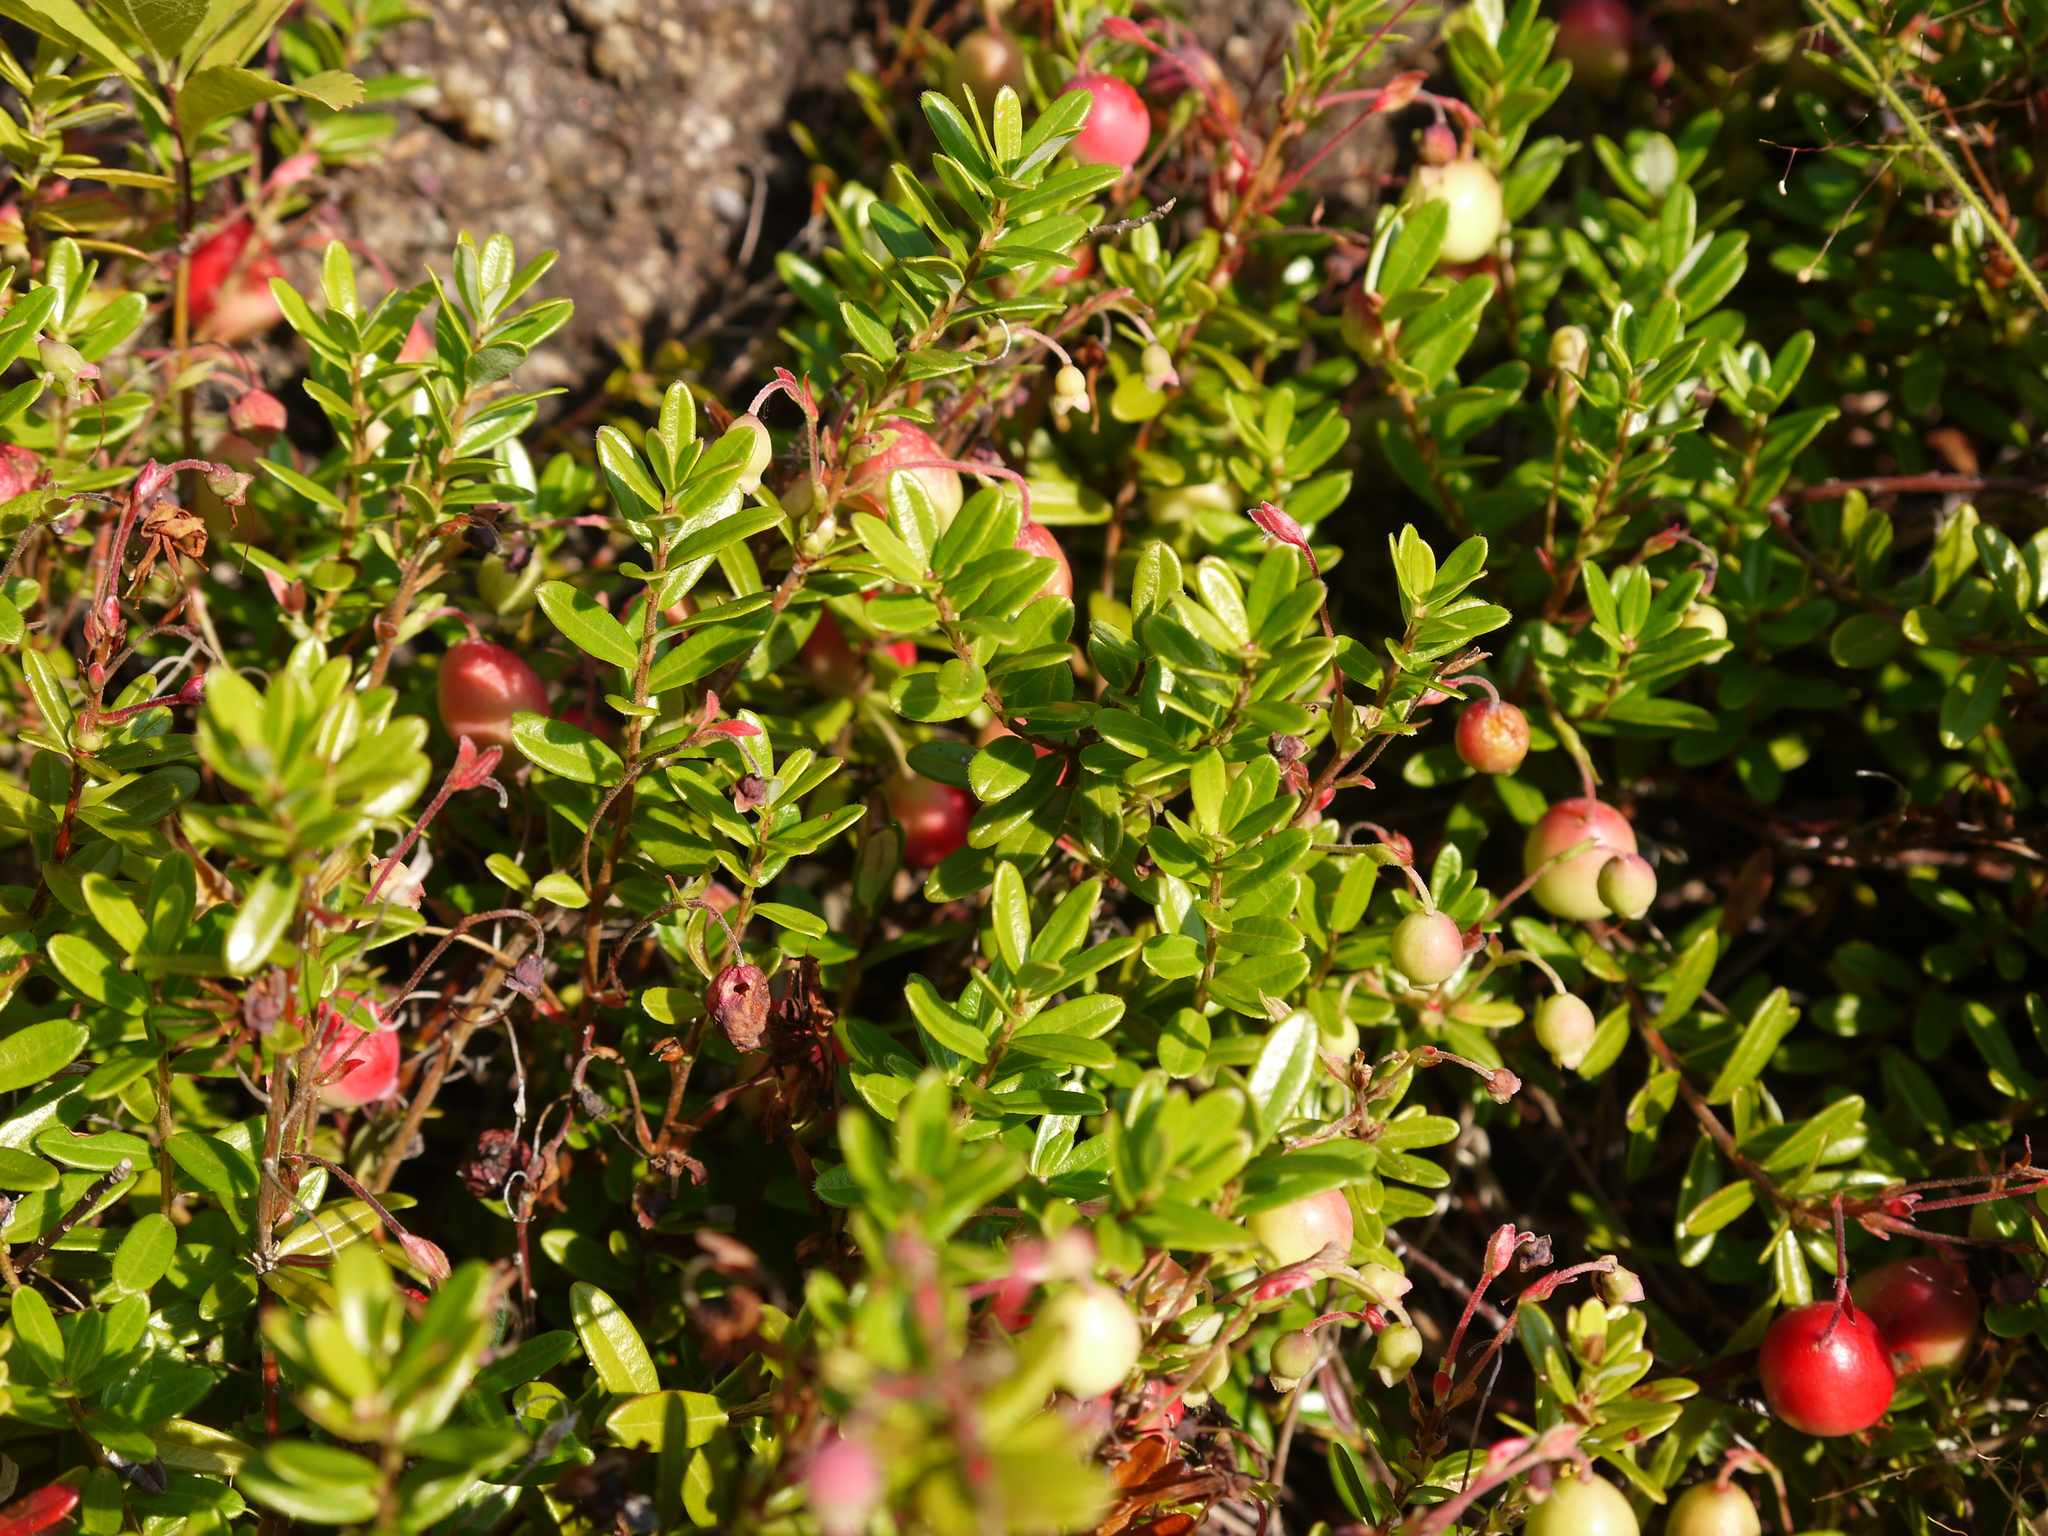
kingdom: Plantae
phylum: Tracheophyta
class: Magnoliopsida
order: Ericales
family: Ericaceae
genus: Vaccinium
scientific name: Vaccinium macrocarpon
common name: American cranberry
